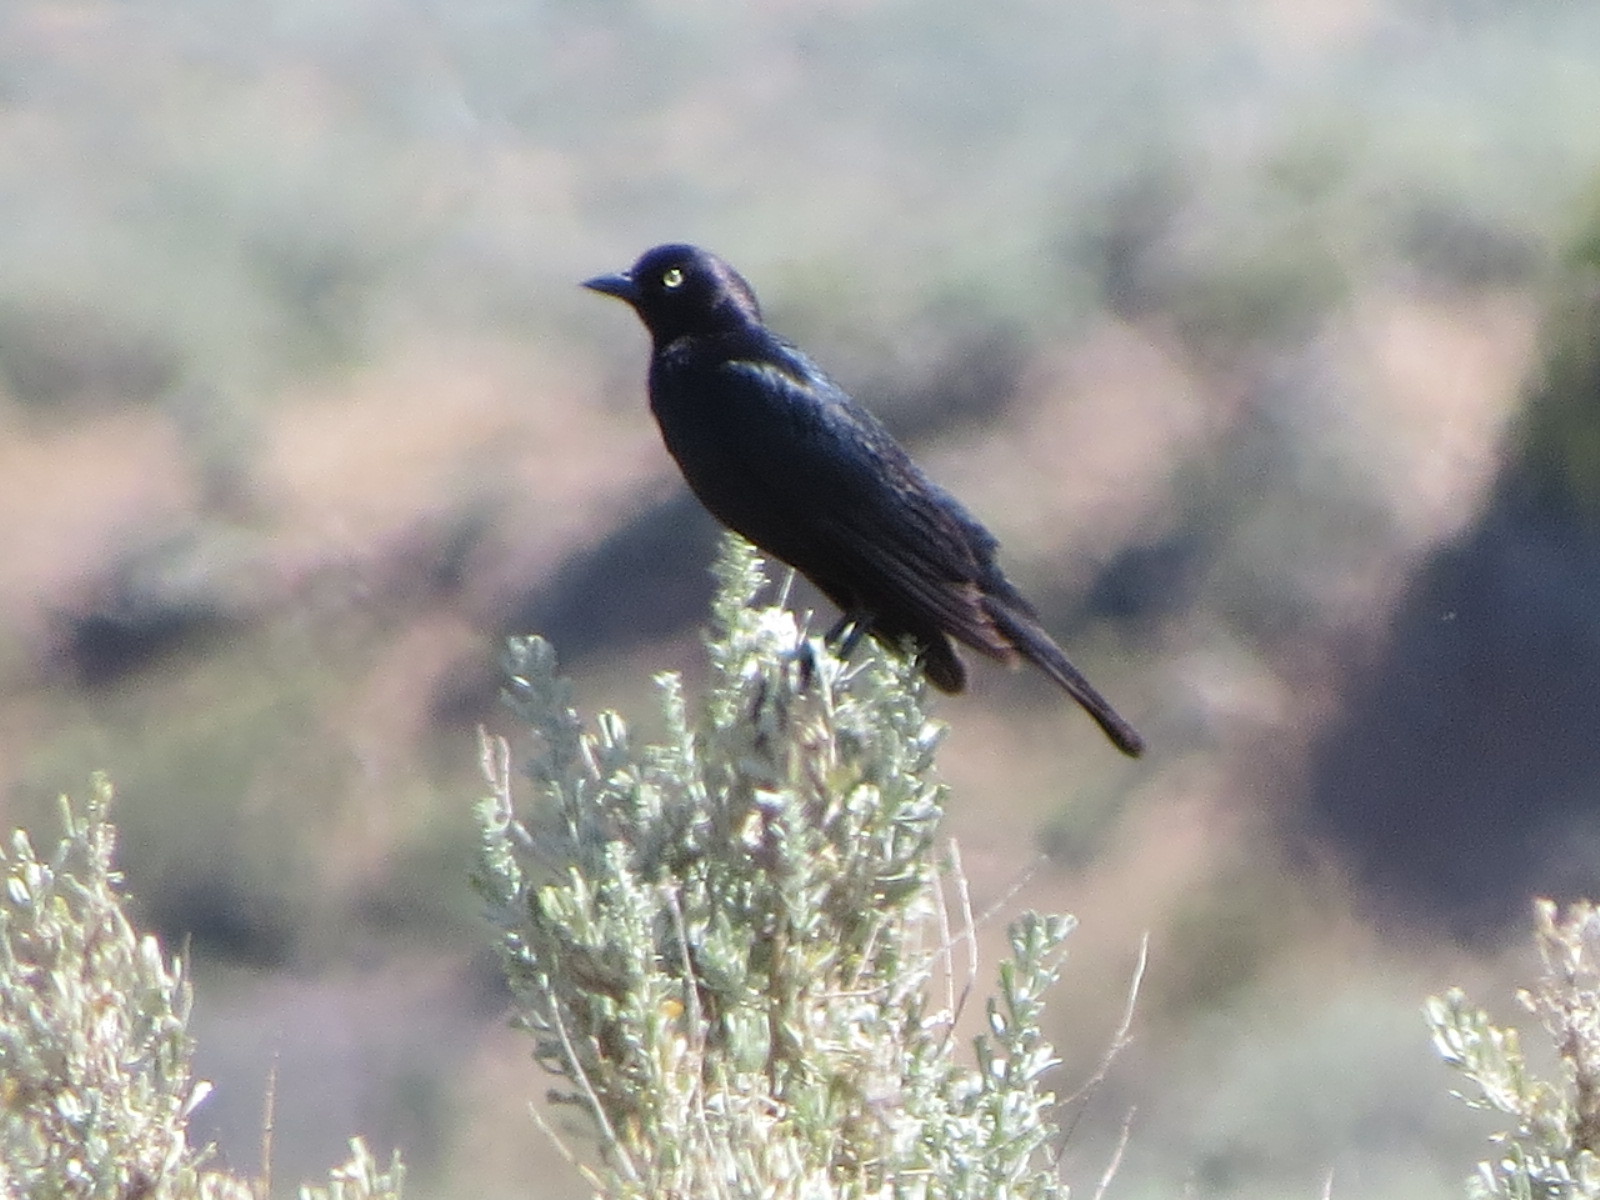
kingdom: Animalia
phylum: Chordata
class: Aves
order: Passeriformes
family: Icteridae
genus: Euphagus
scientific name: Euphagus cyanocephalus
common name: Brewer's blackbird
